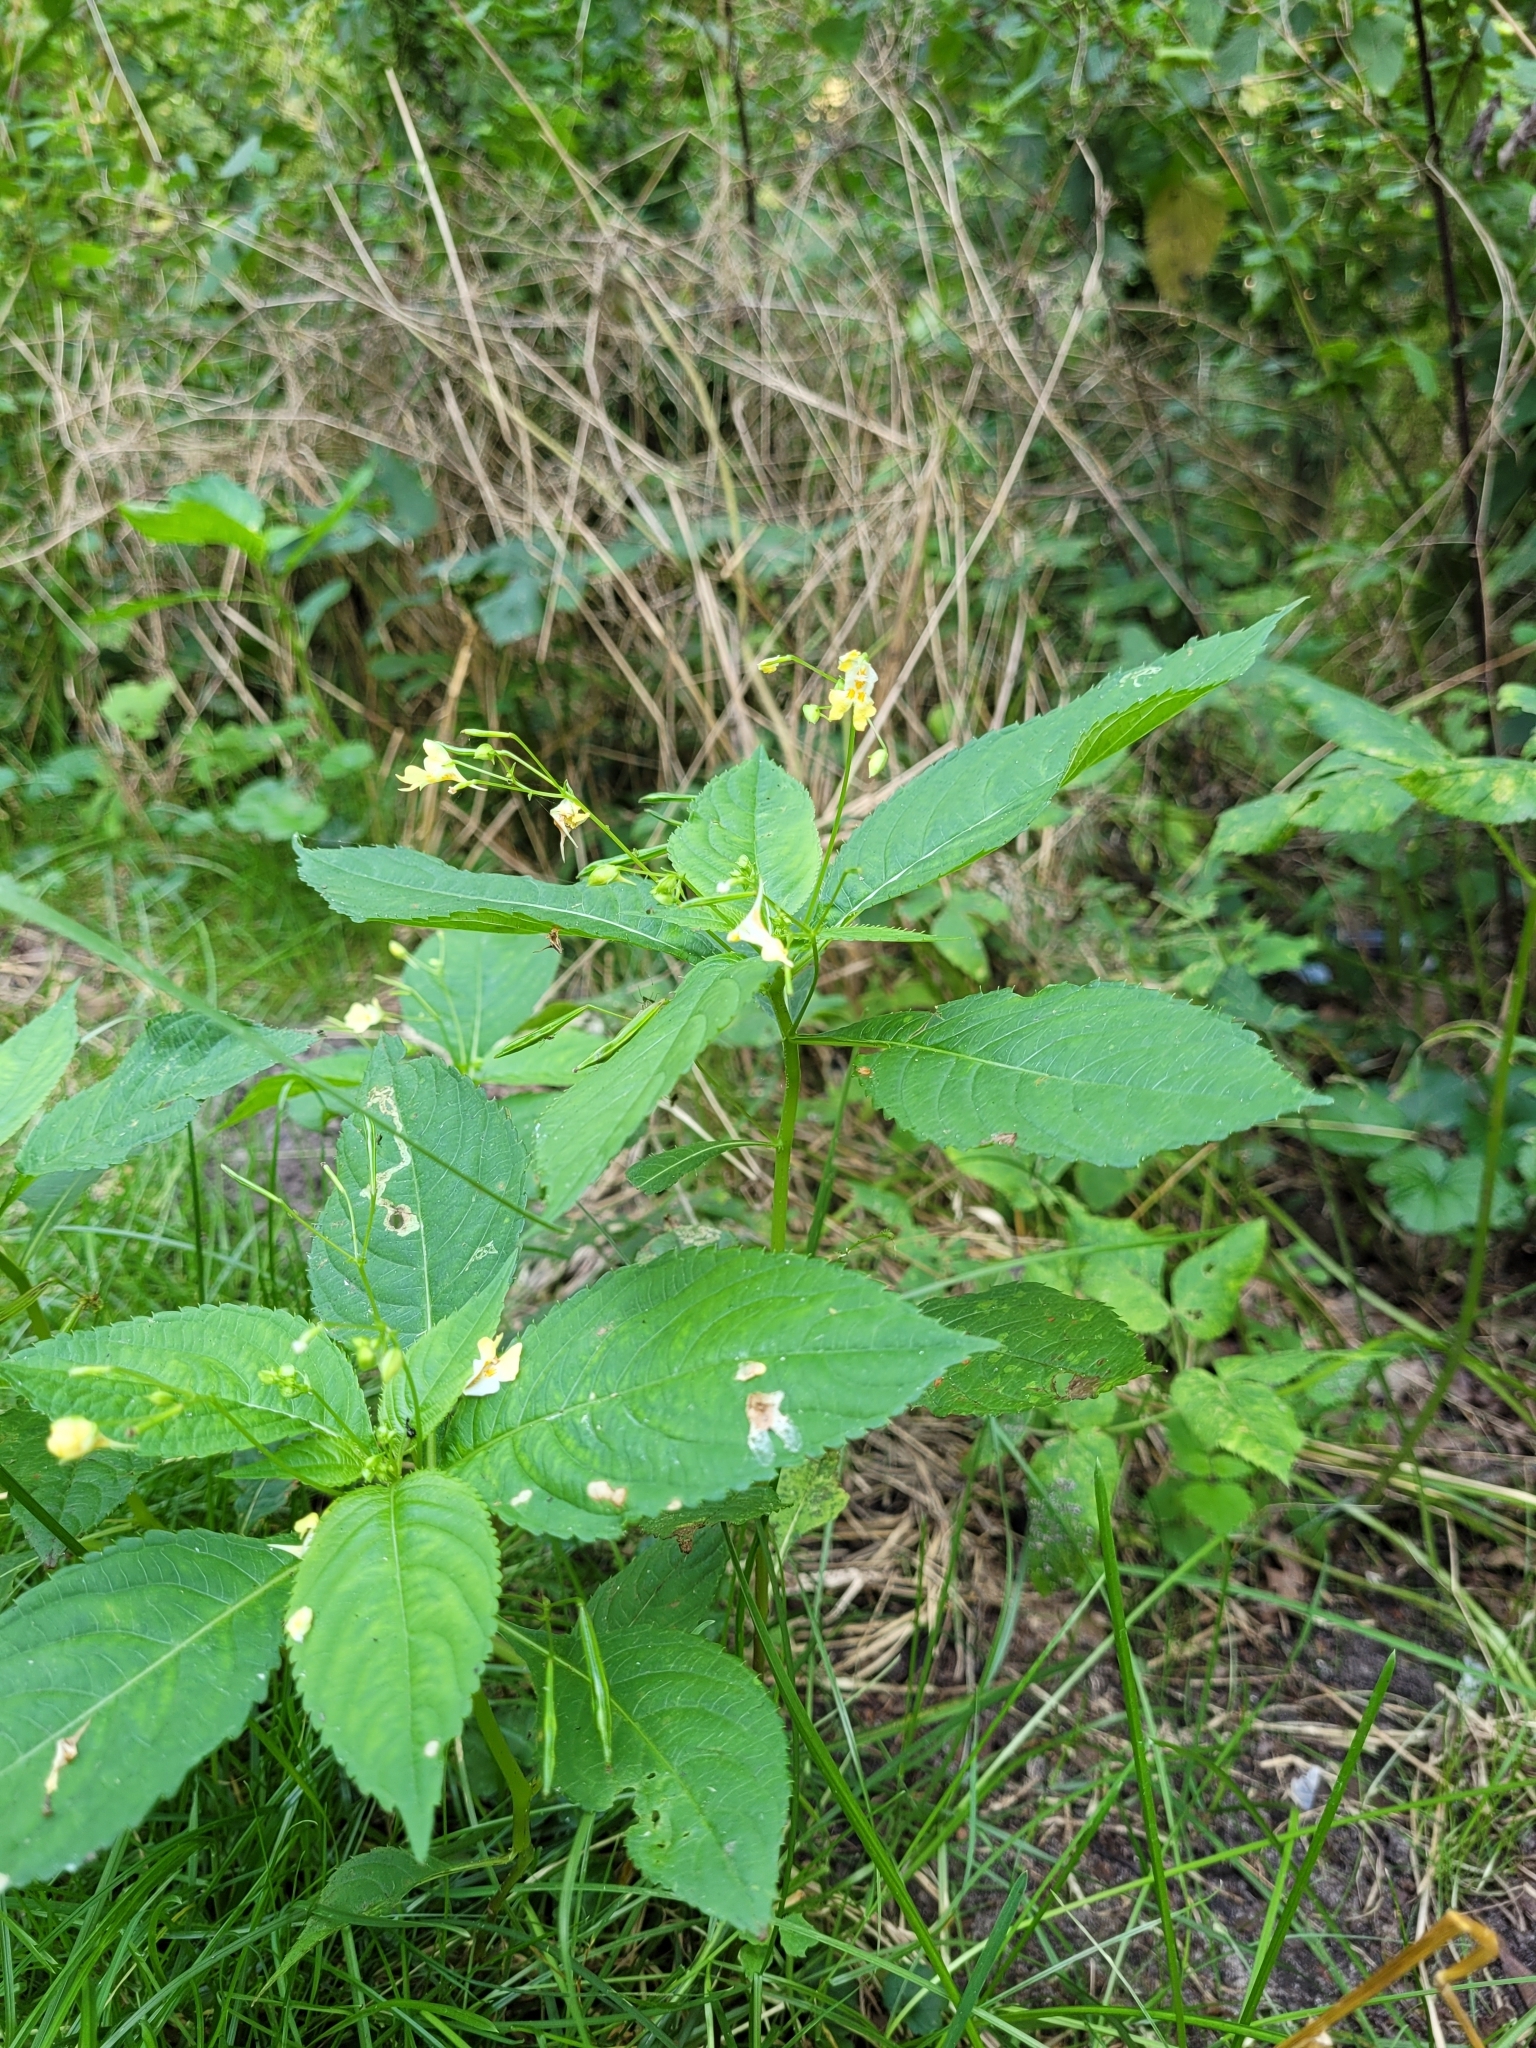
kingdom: Plantae
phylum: Tracheophyta
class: Magnoliopsida
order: Ericales
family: Balsaminaceae
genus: Impatiens
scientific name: Impatiens parviflora
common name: Small balsam
